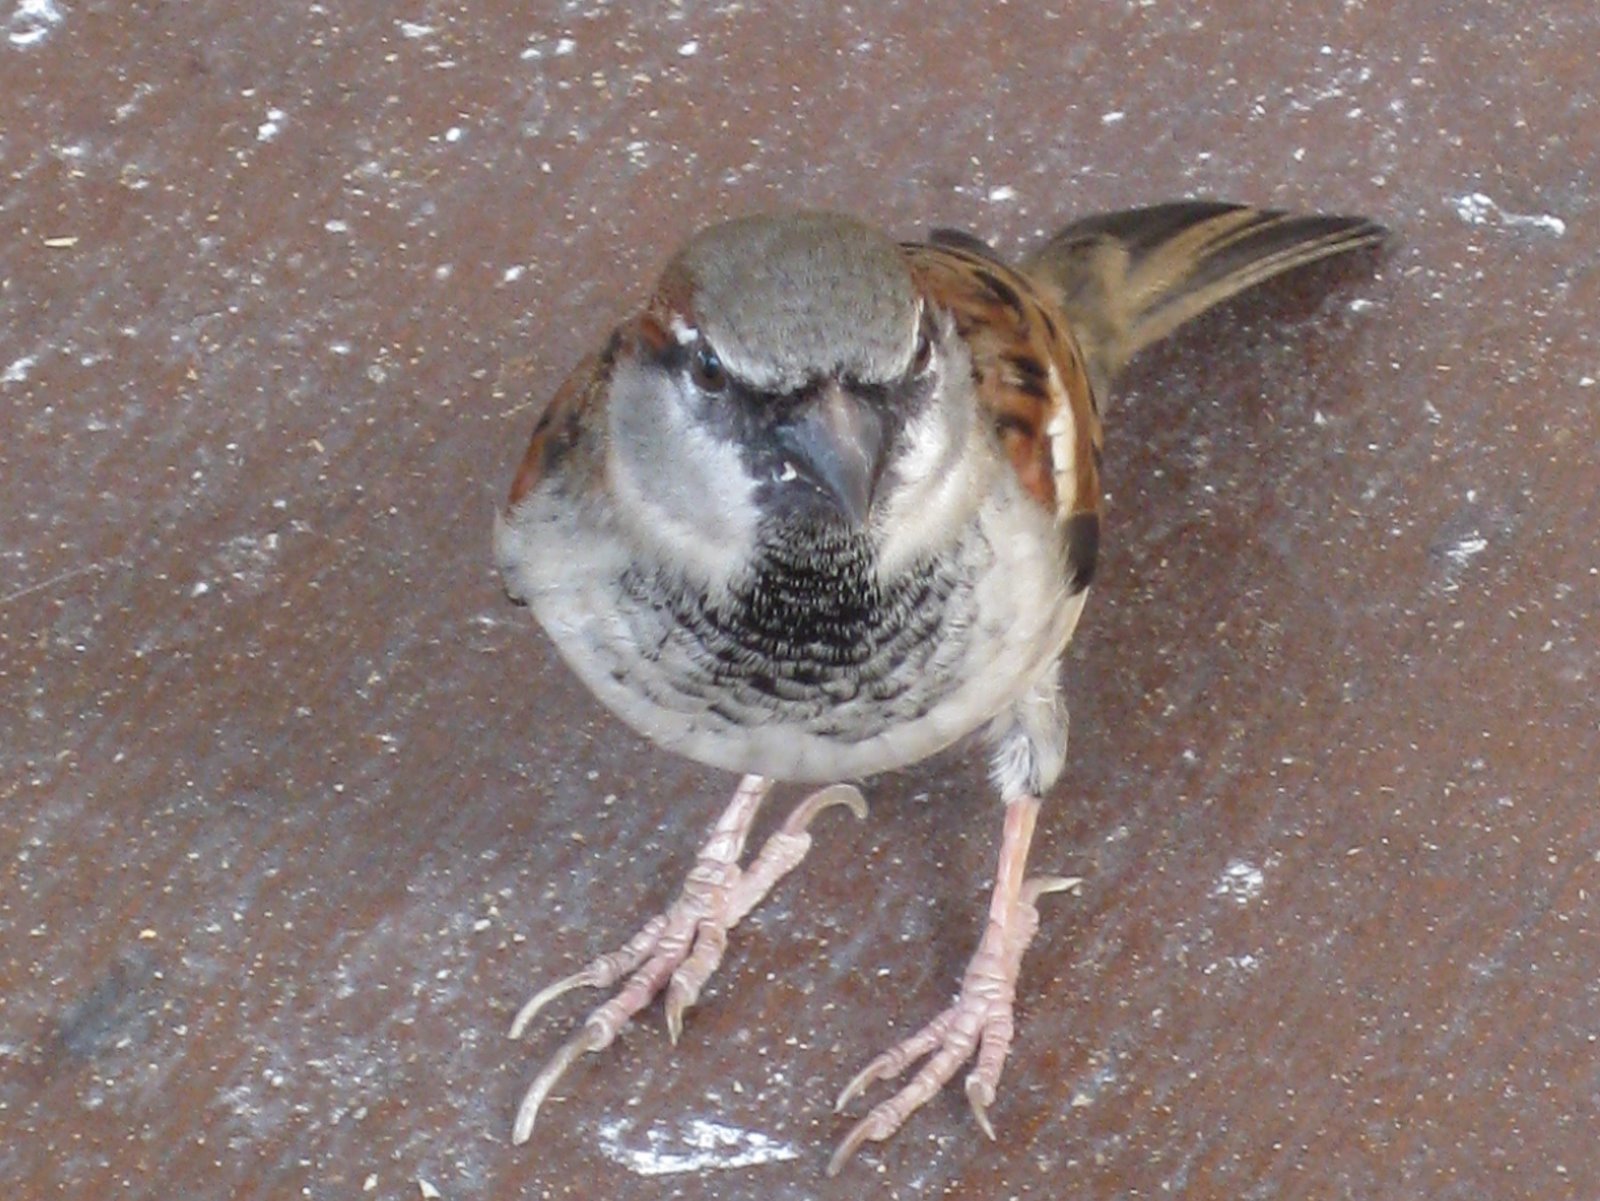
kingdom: Animalia
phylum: Chordata
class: Aves
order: Passeriformes
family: Passeridae
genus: Passer
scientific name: Passer domesticus
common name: House sparrow
